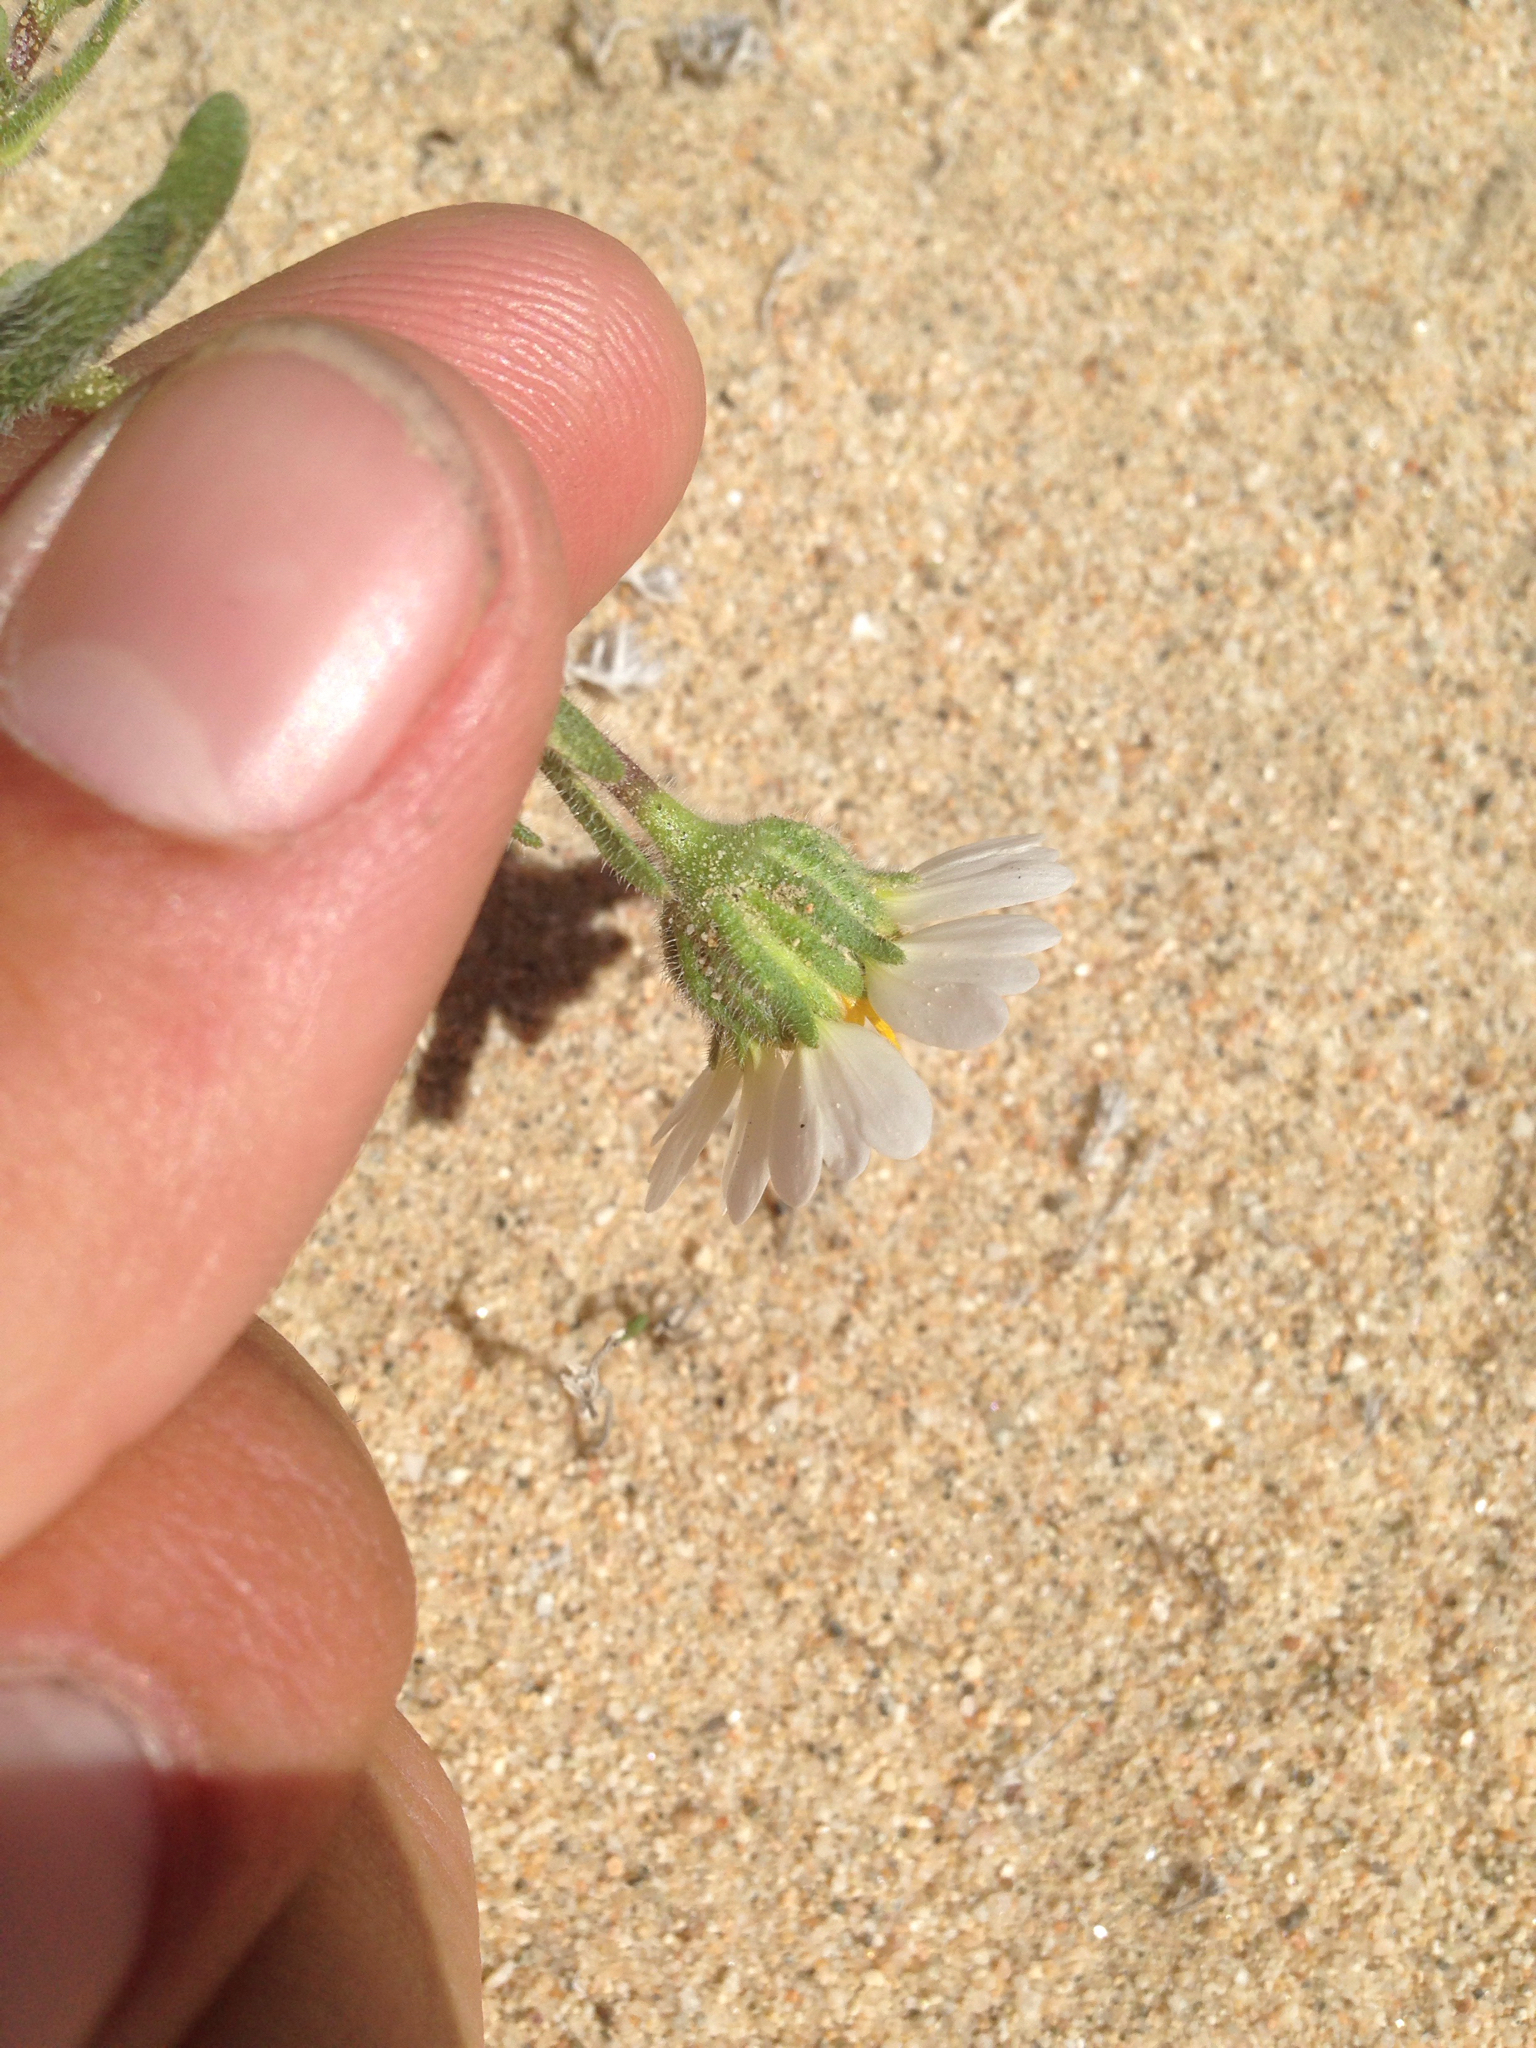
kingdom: Plantae
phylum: Tracheophyta
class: Magnoliopsida
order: Asterales
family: Asteraceae
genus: Layia
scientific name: Layia glandulosa
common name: White layia
